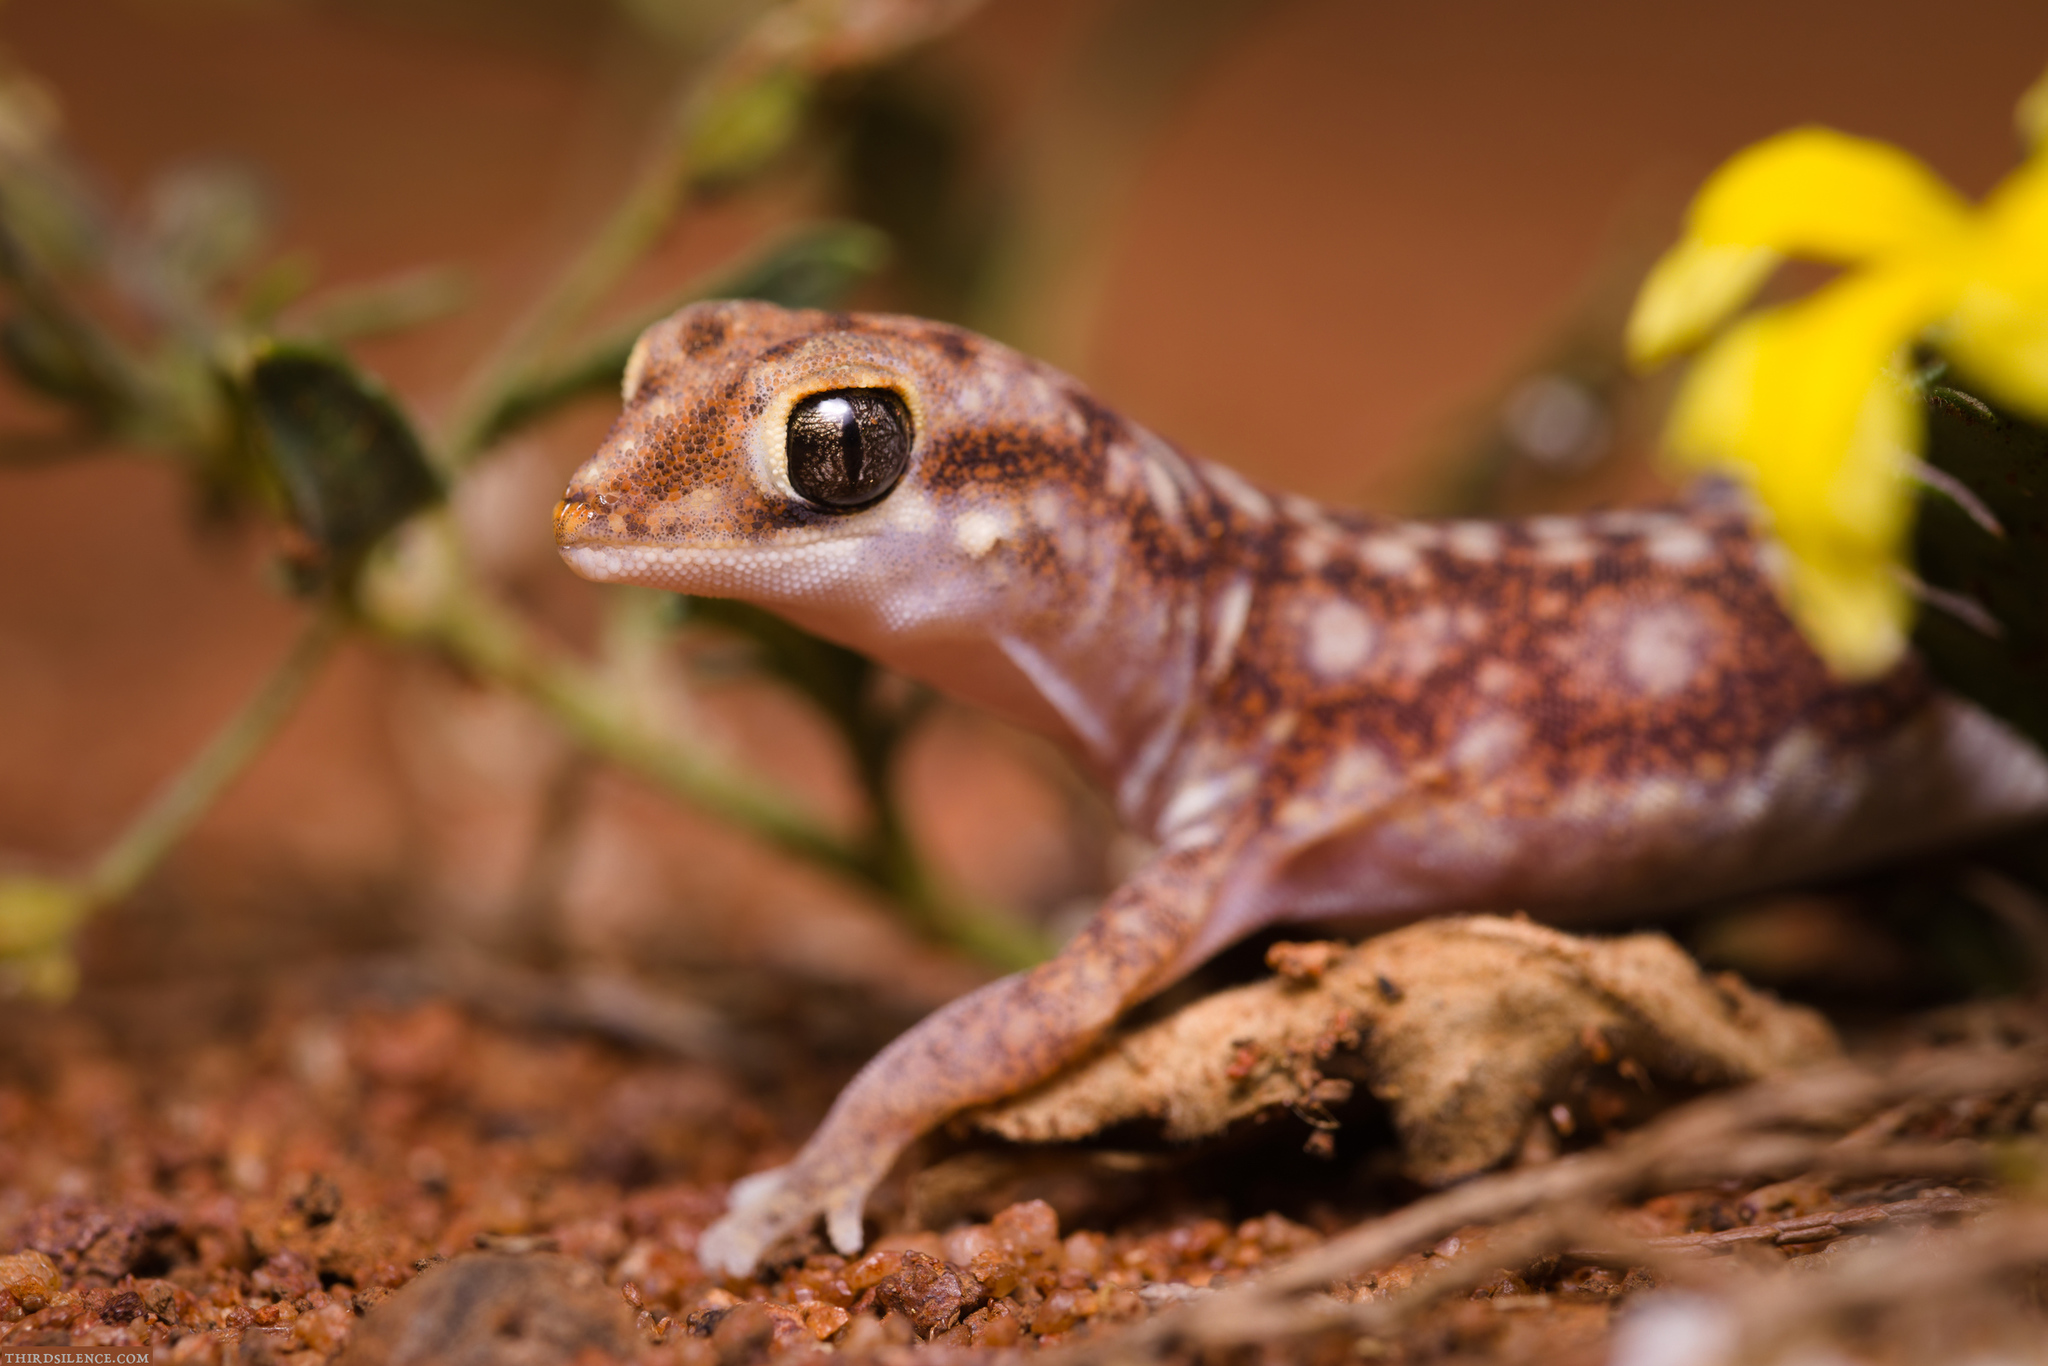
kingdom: Animalia
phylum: Chordata
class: Squamata
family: Diplodactylidae
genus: Rhynchoedura
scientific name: Rhynchoedura ormsbyi
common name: Eastern beaked gecko
